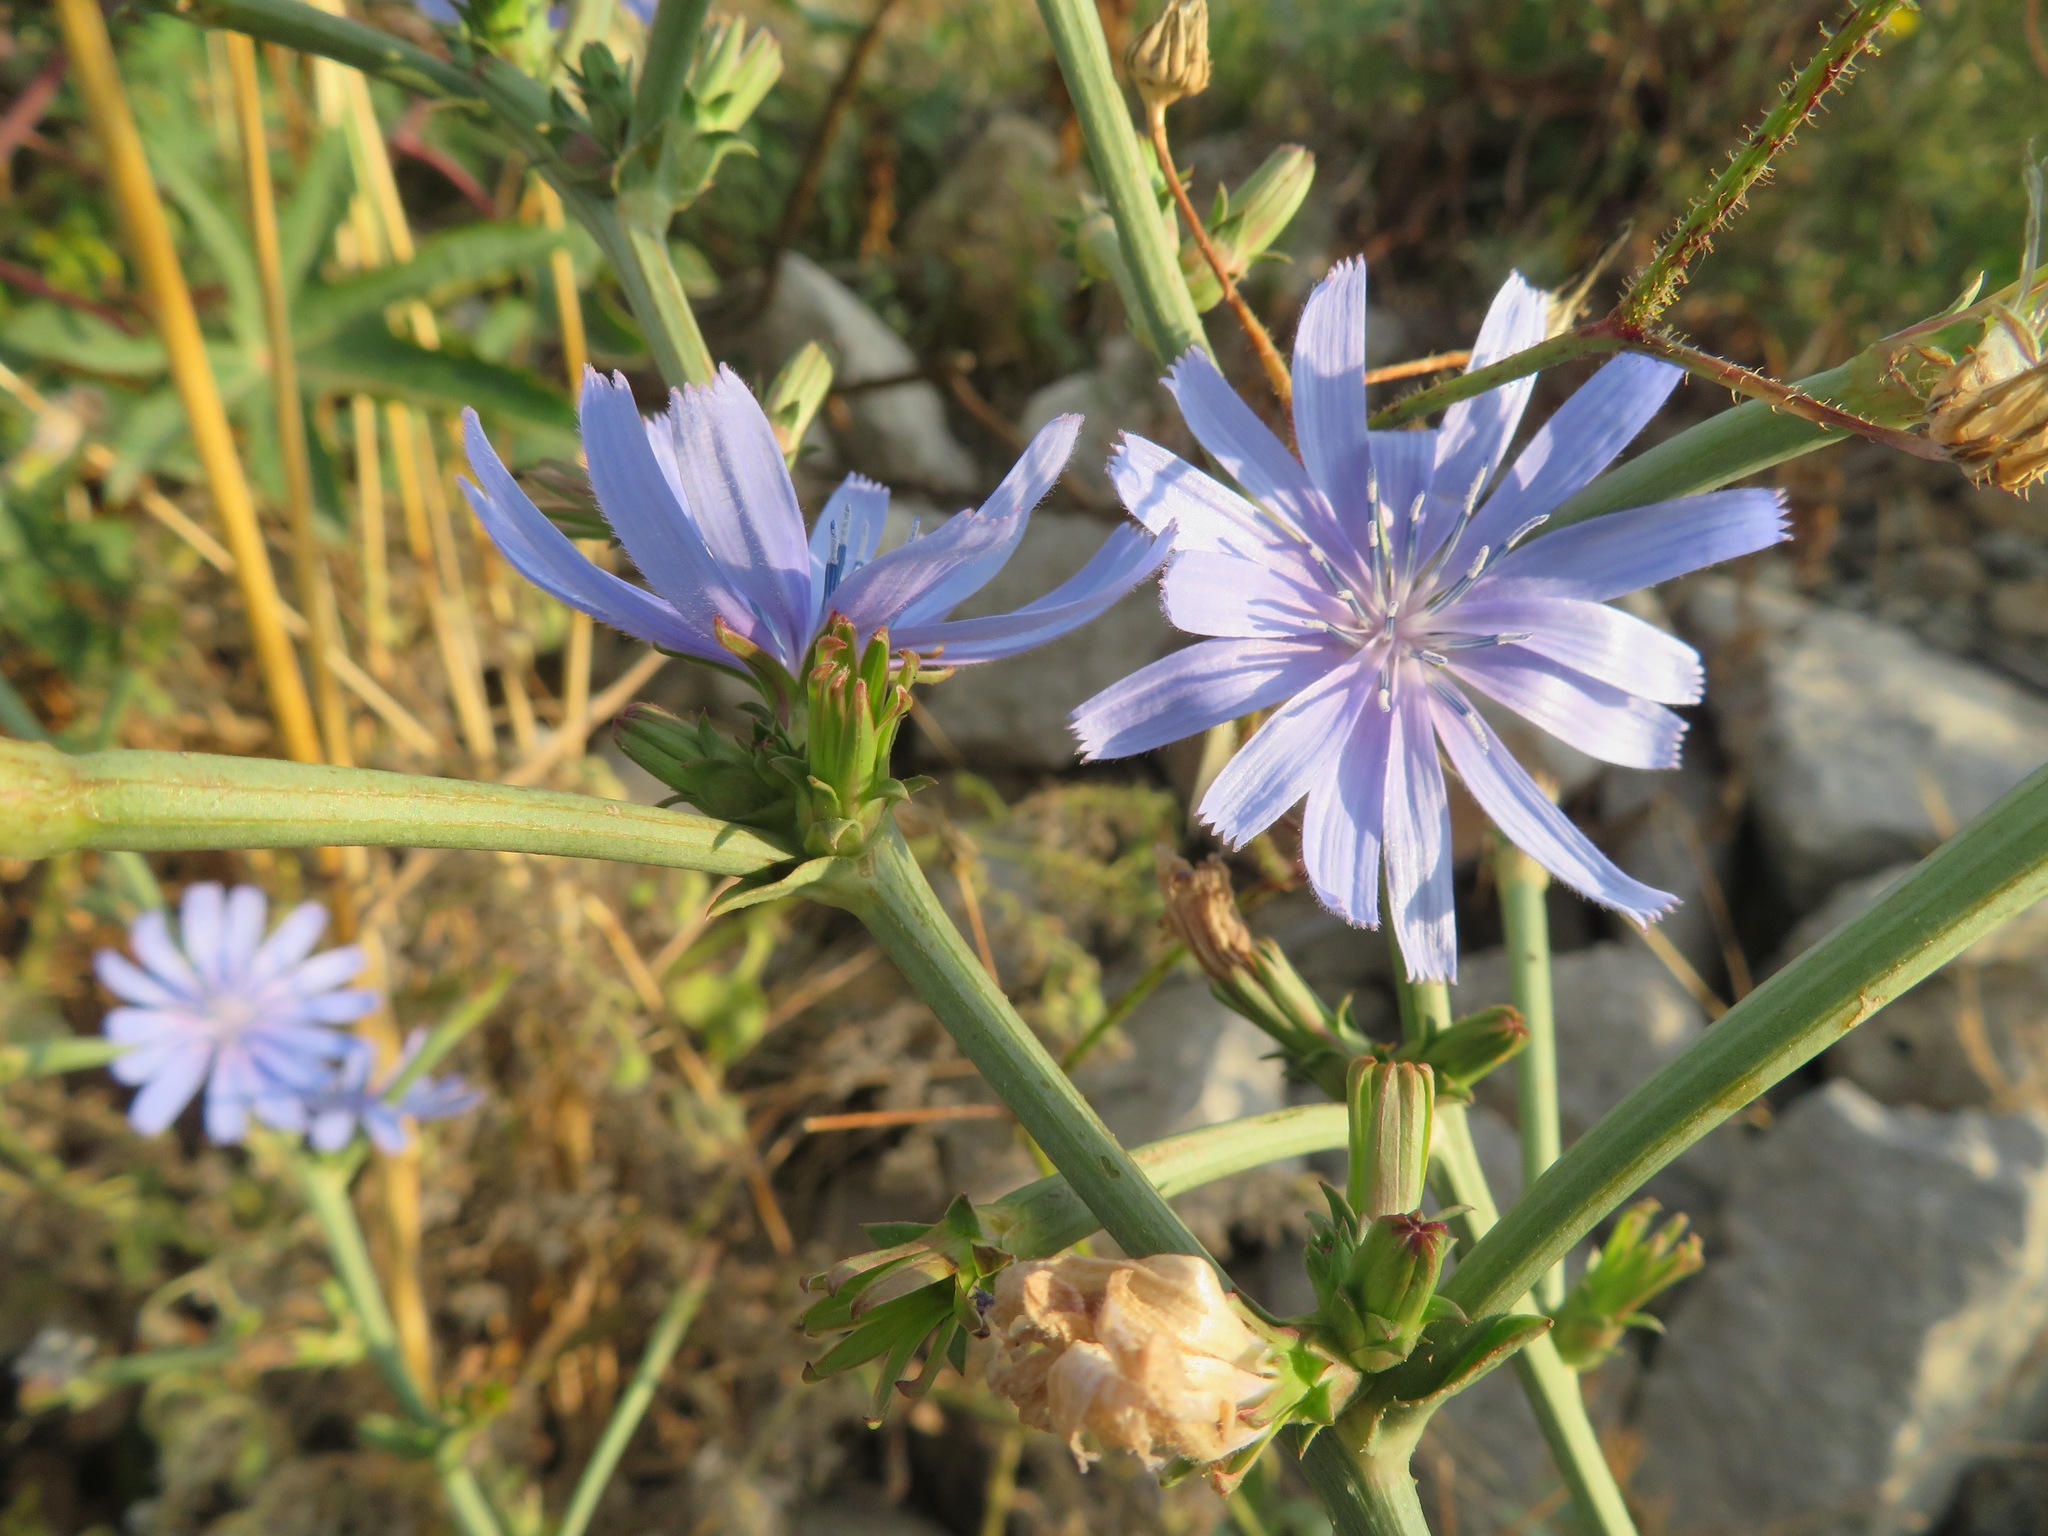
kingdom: Plantae
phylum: Tracheophyta
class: Magnoliopsida
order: Asterales
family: Asteraceae
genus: Cichorium
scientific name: Cichorium intybus
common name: Chicory
